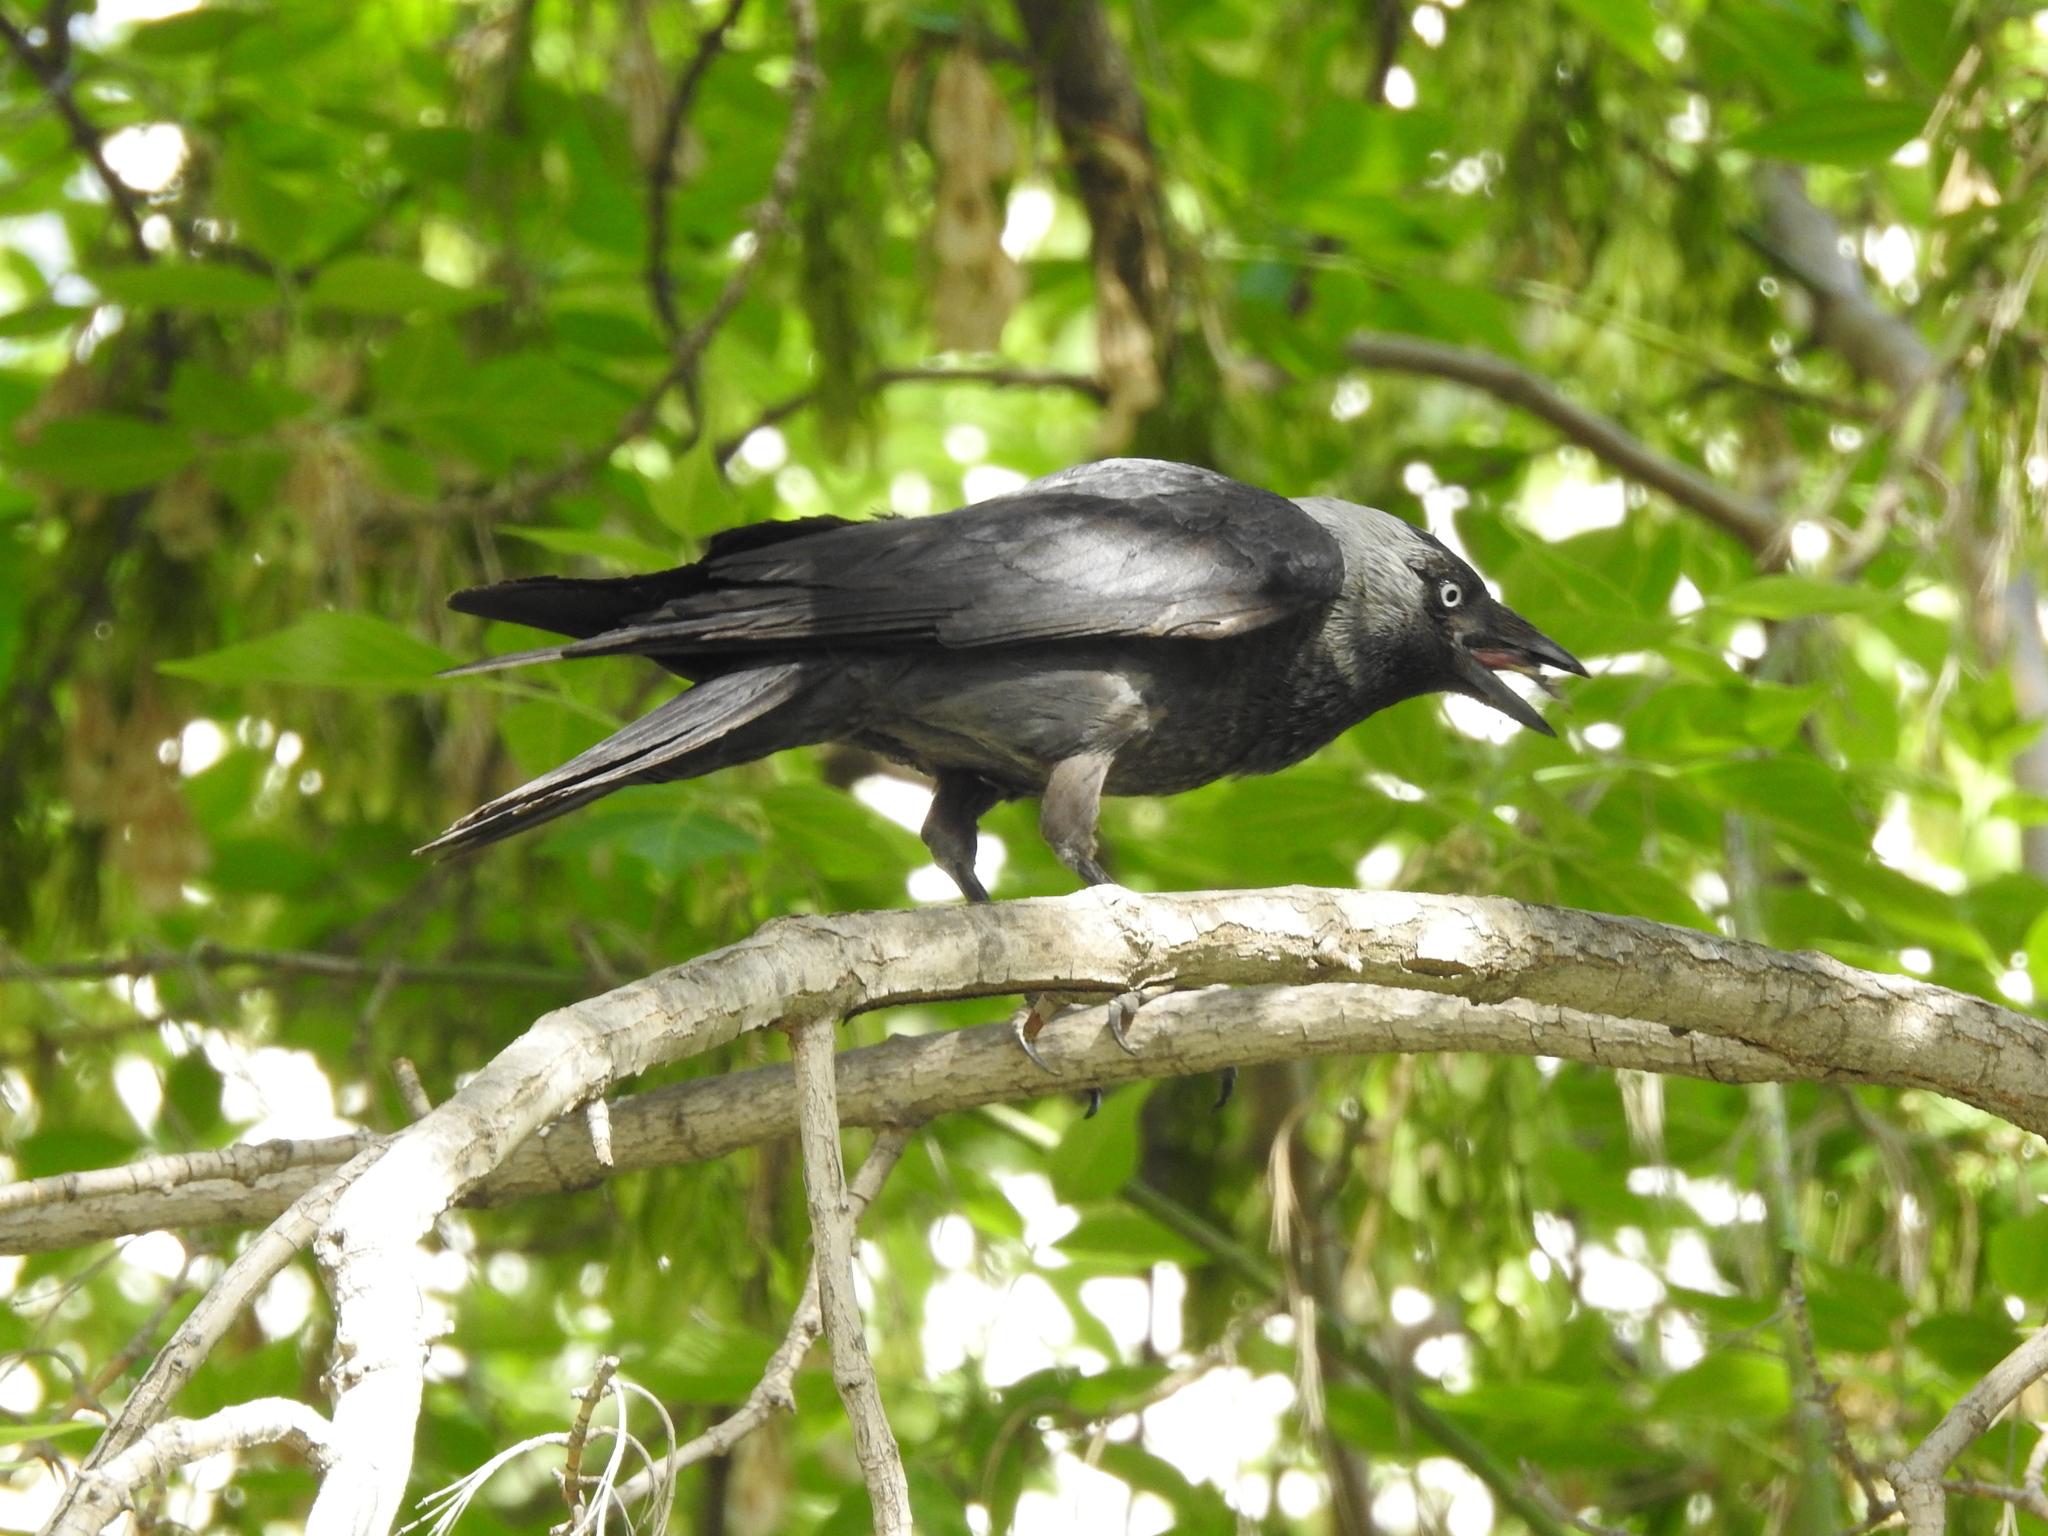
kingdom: Animalia
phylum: Chordata
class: Aves
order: Passeriformes
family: Corvidae
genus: Coloeus
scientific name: Coloeus monedula
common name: Western jackdaw
